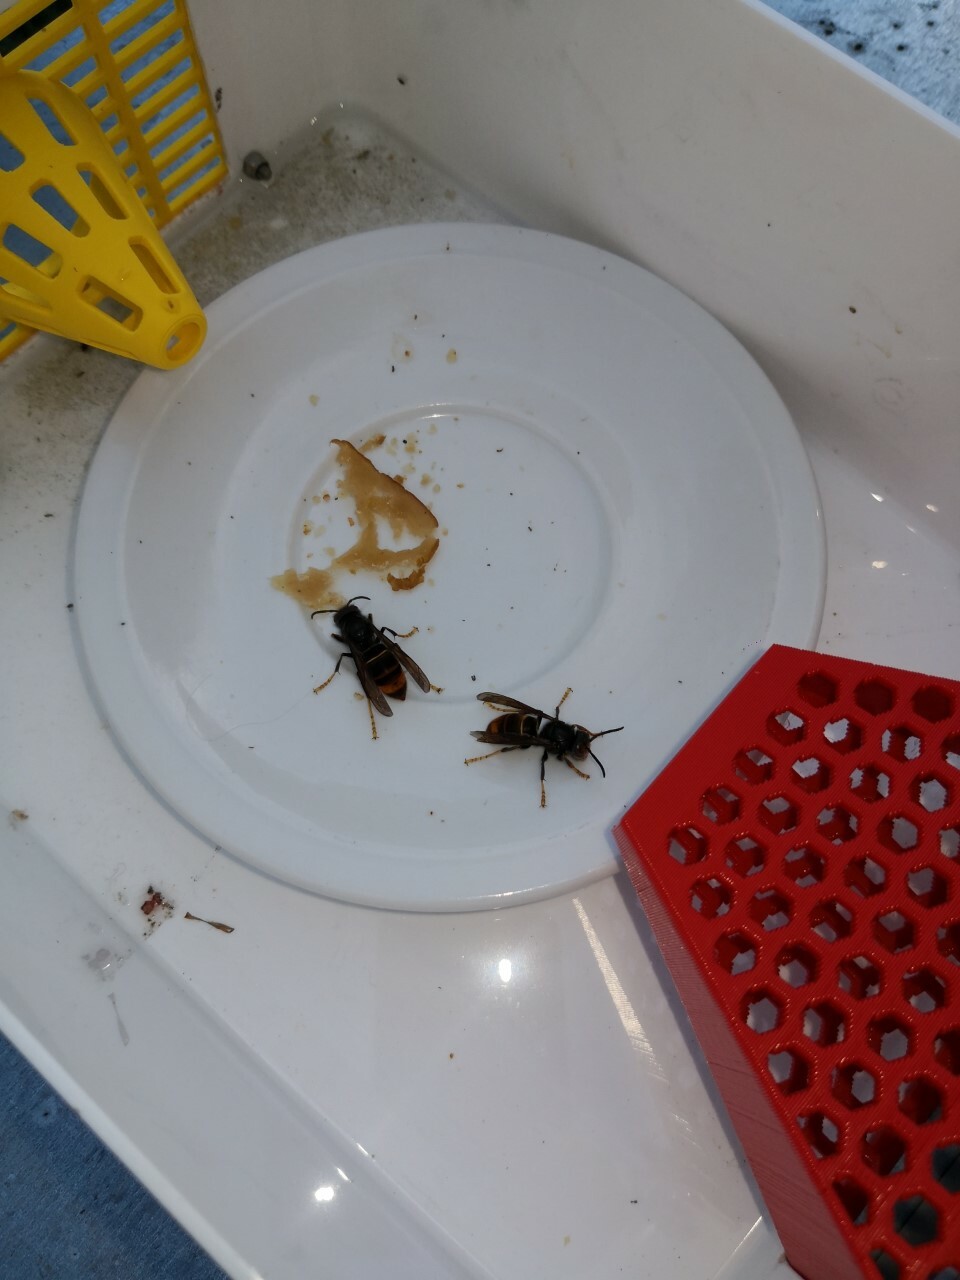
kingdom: Animalia
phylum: Arthropoda
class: Insecta
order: Hymenoptera
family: Vespidae
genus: Vespa
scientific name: Vespa velutina
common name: Asian hornet
